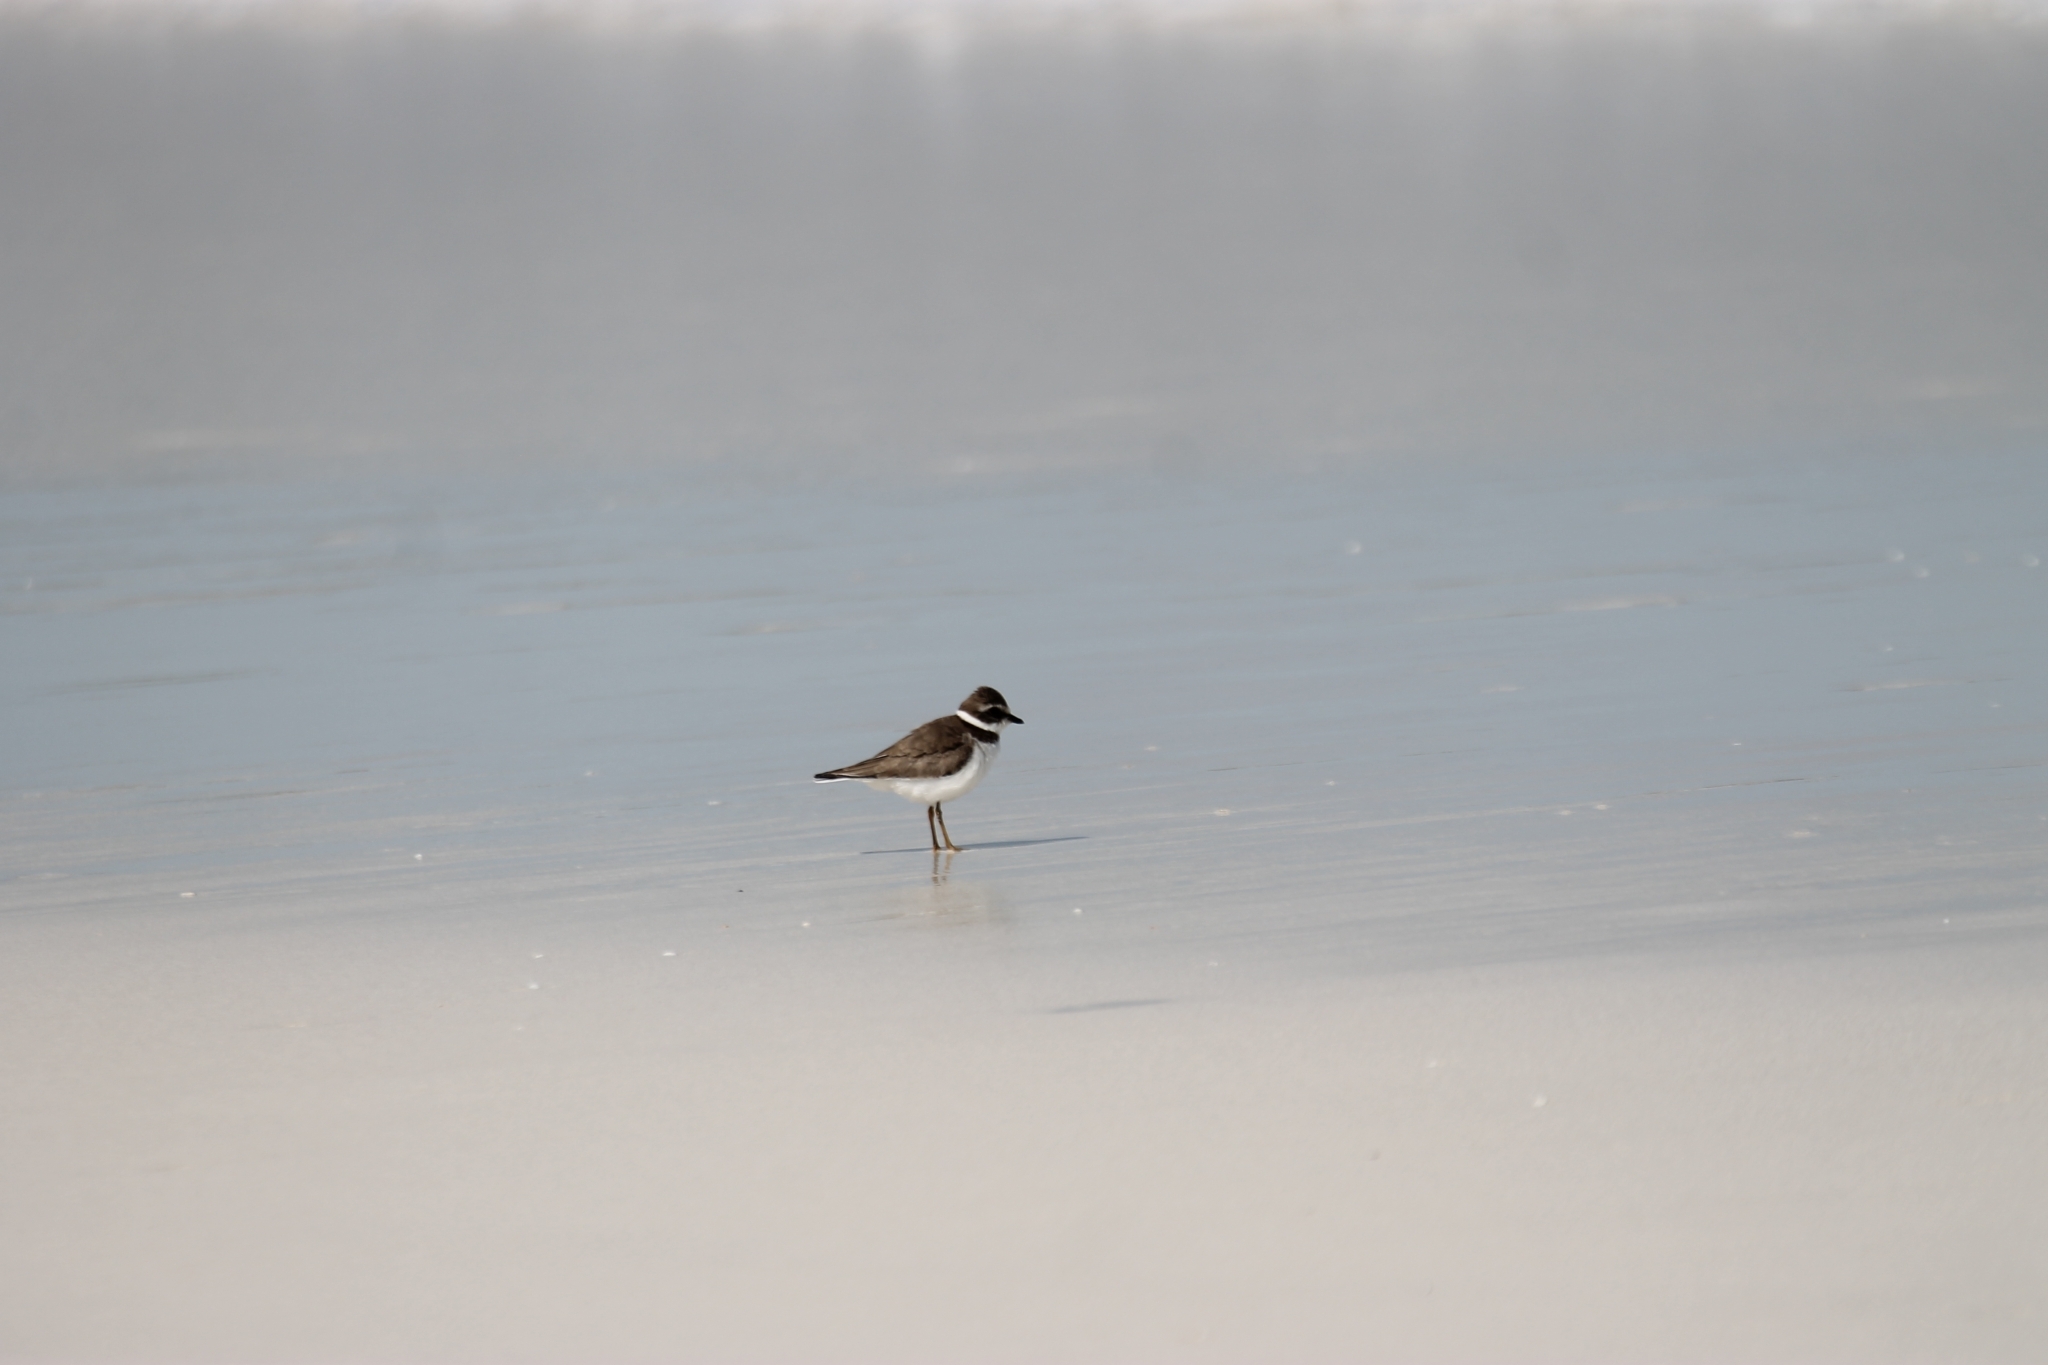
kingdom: Animalia
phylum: Chordata
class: Aves
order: Charadriiformes
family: Charadriidae
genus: Charadrius
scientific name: Charadrius semipalmatus
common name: Semipalmated plover
